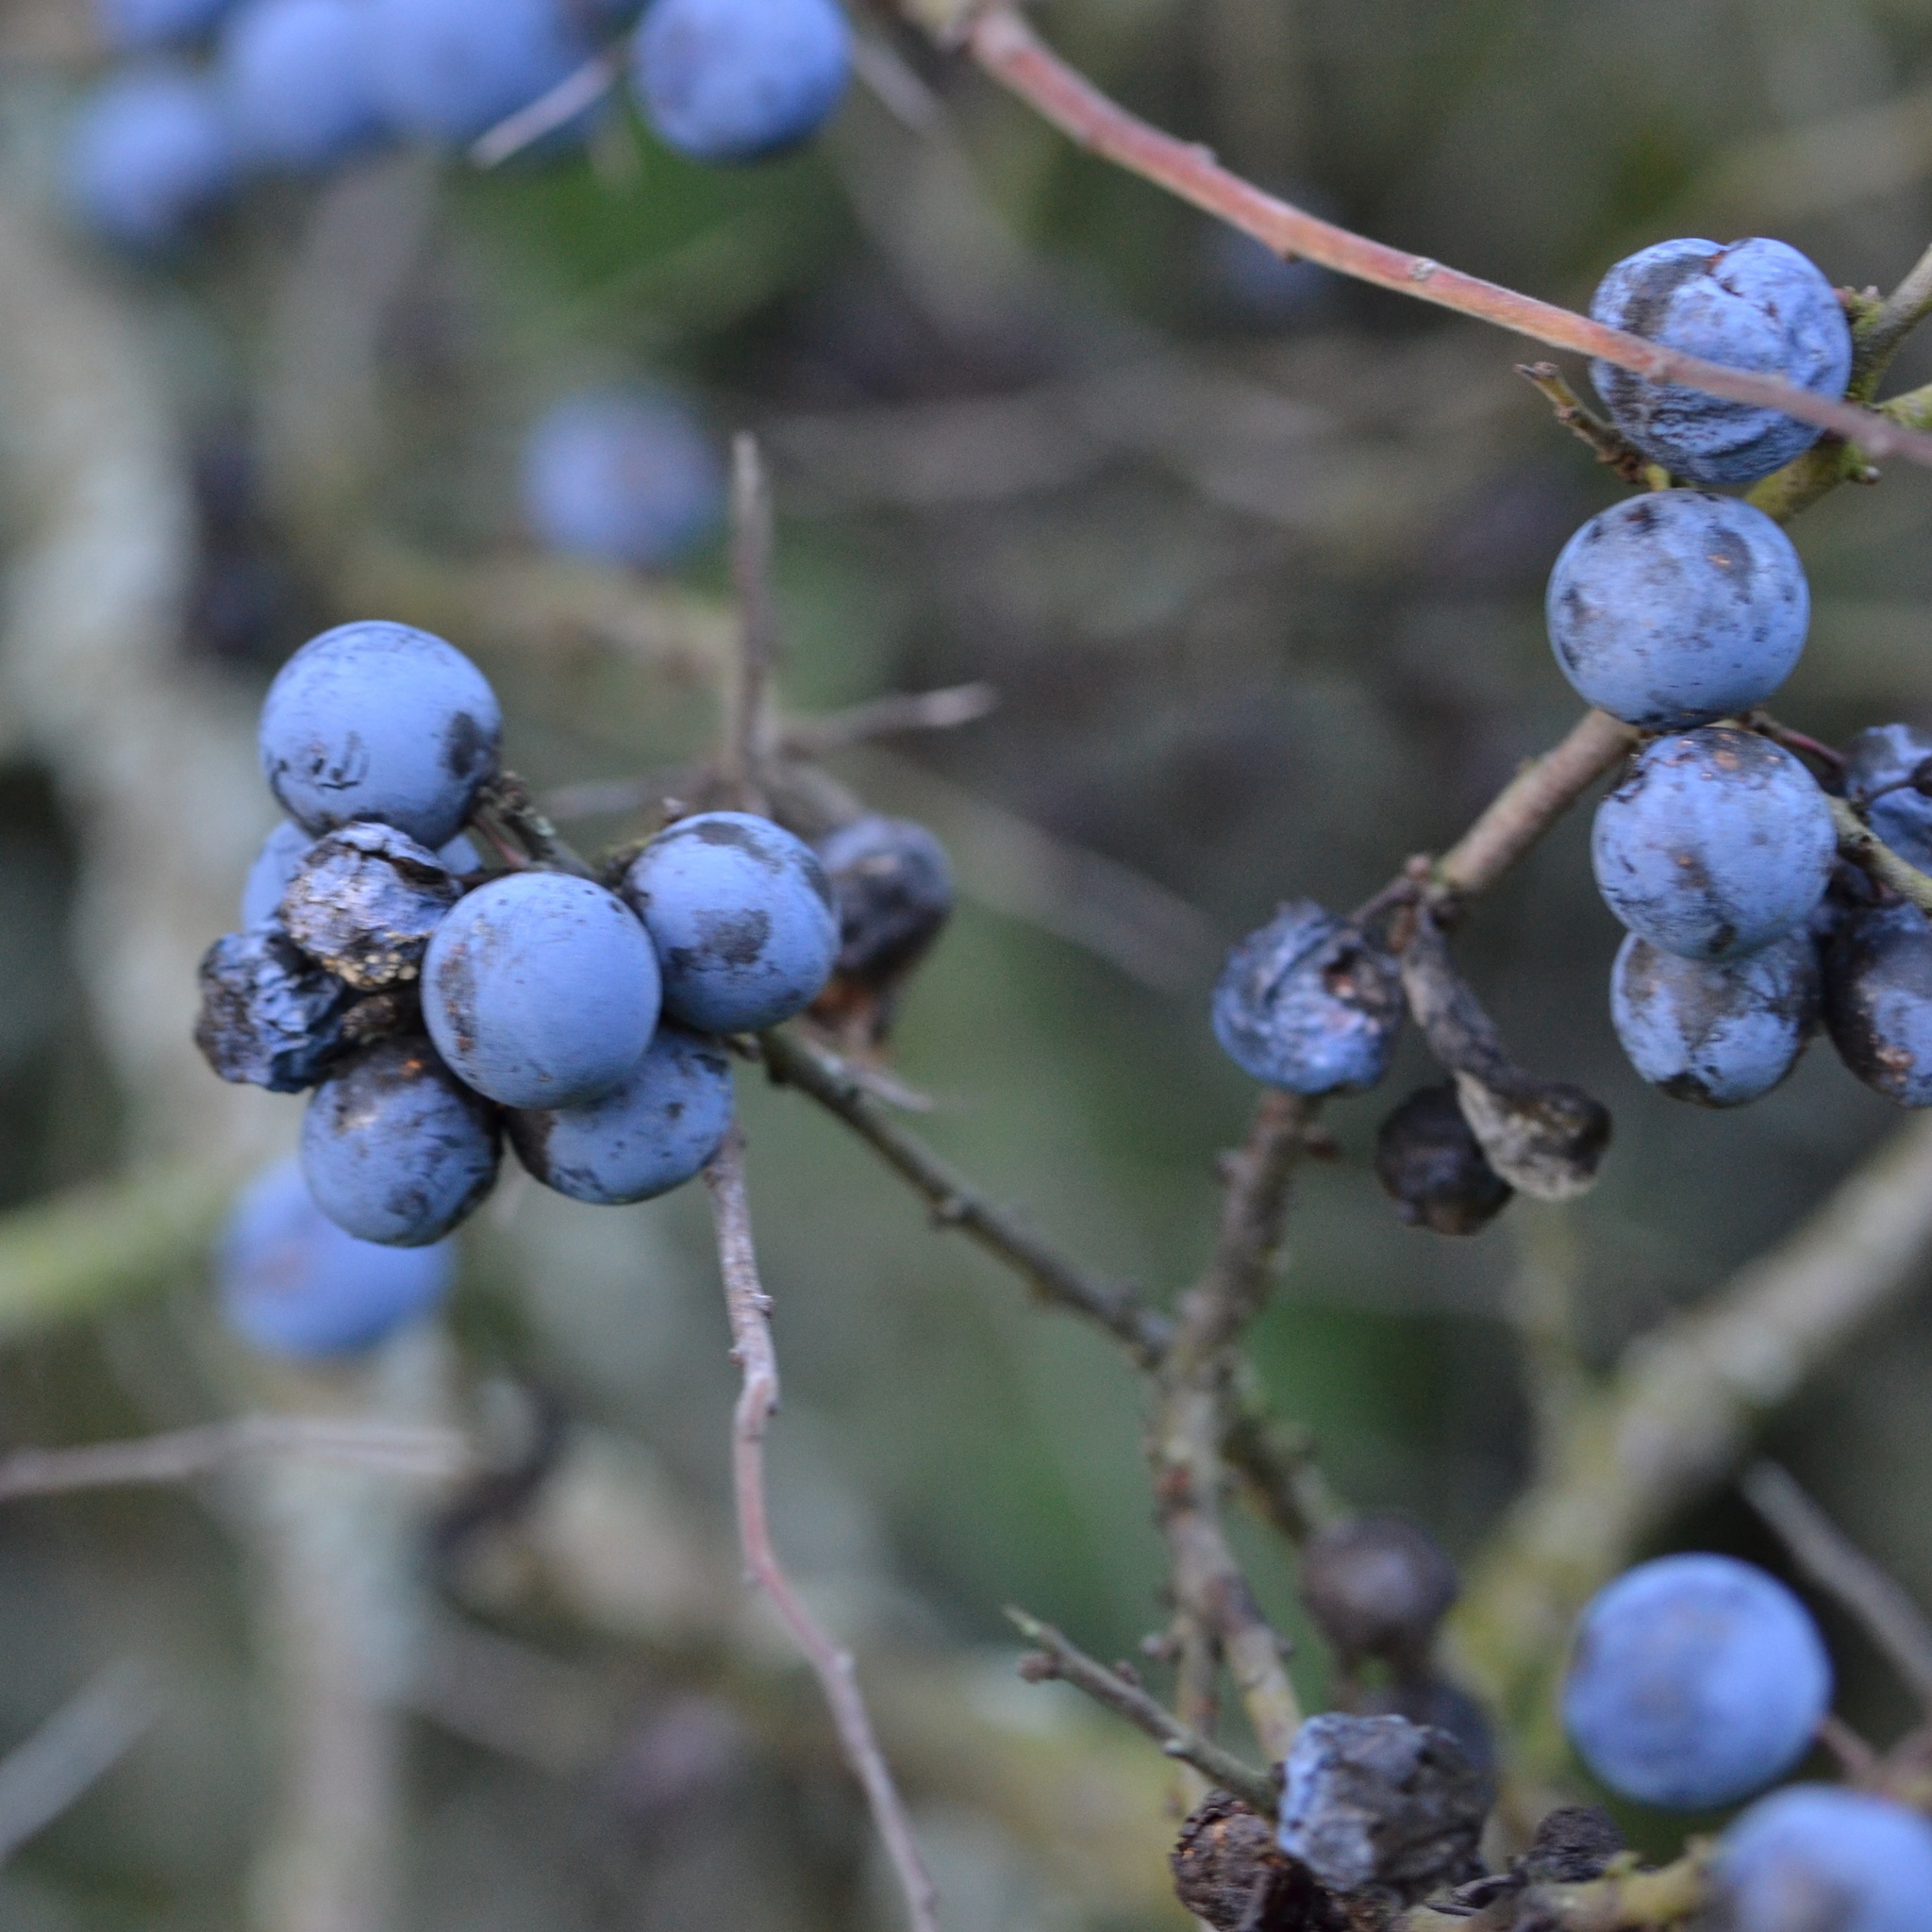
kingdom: Plantae
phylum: Tracheophyta
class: Magnoliopsida
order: Rosales
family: Rosaceae
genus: Prunus
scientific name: Prunus spinosa
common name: Blackthorn
